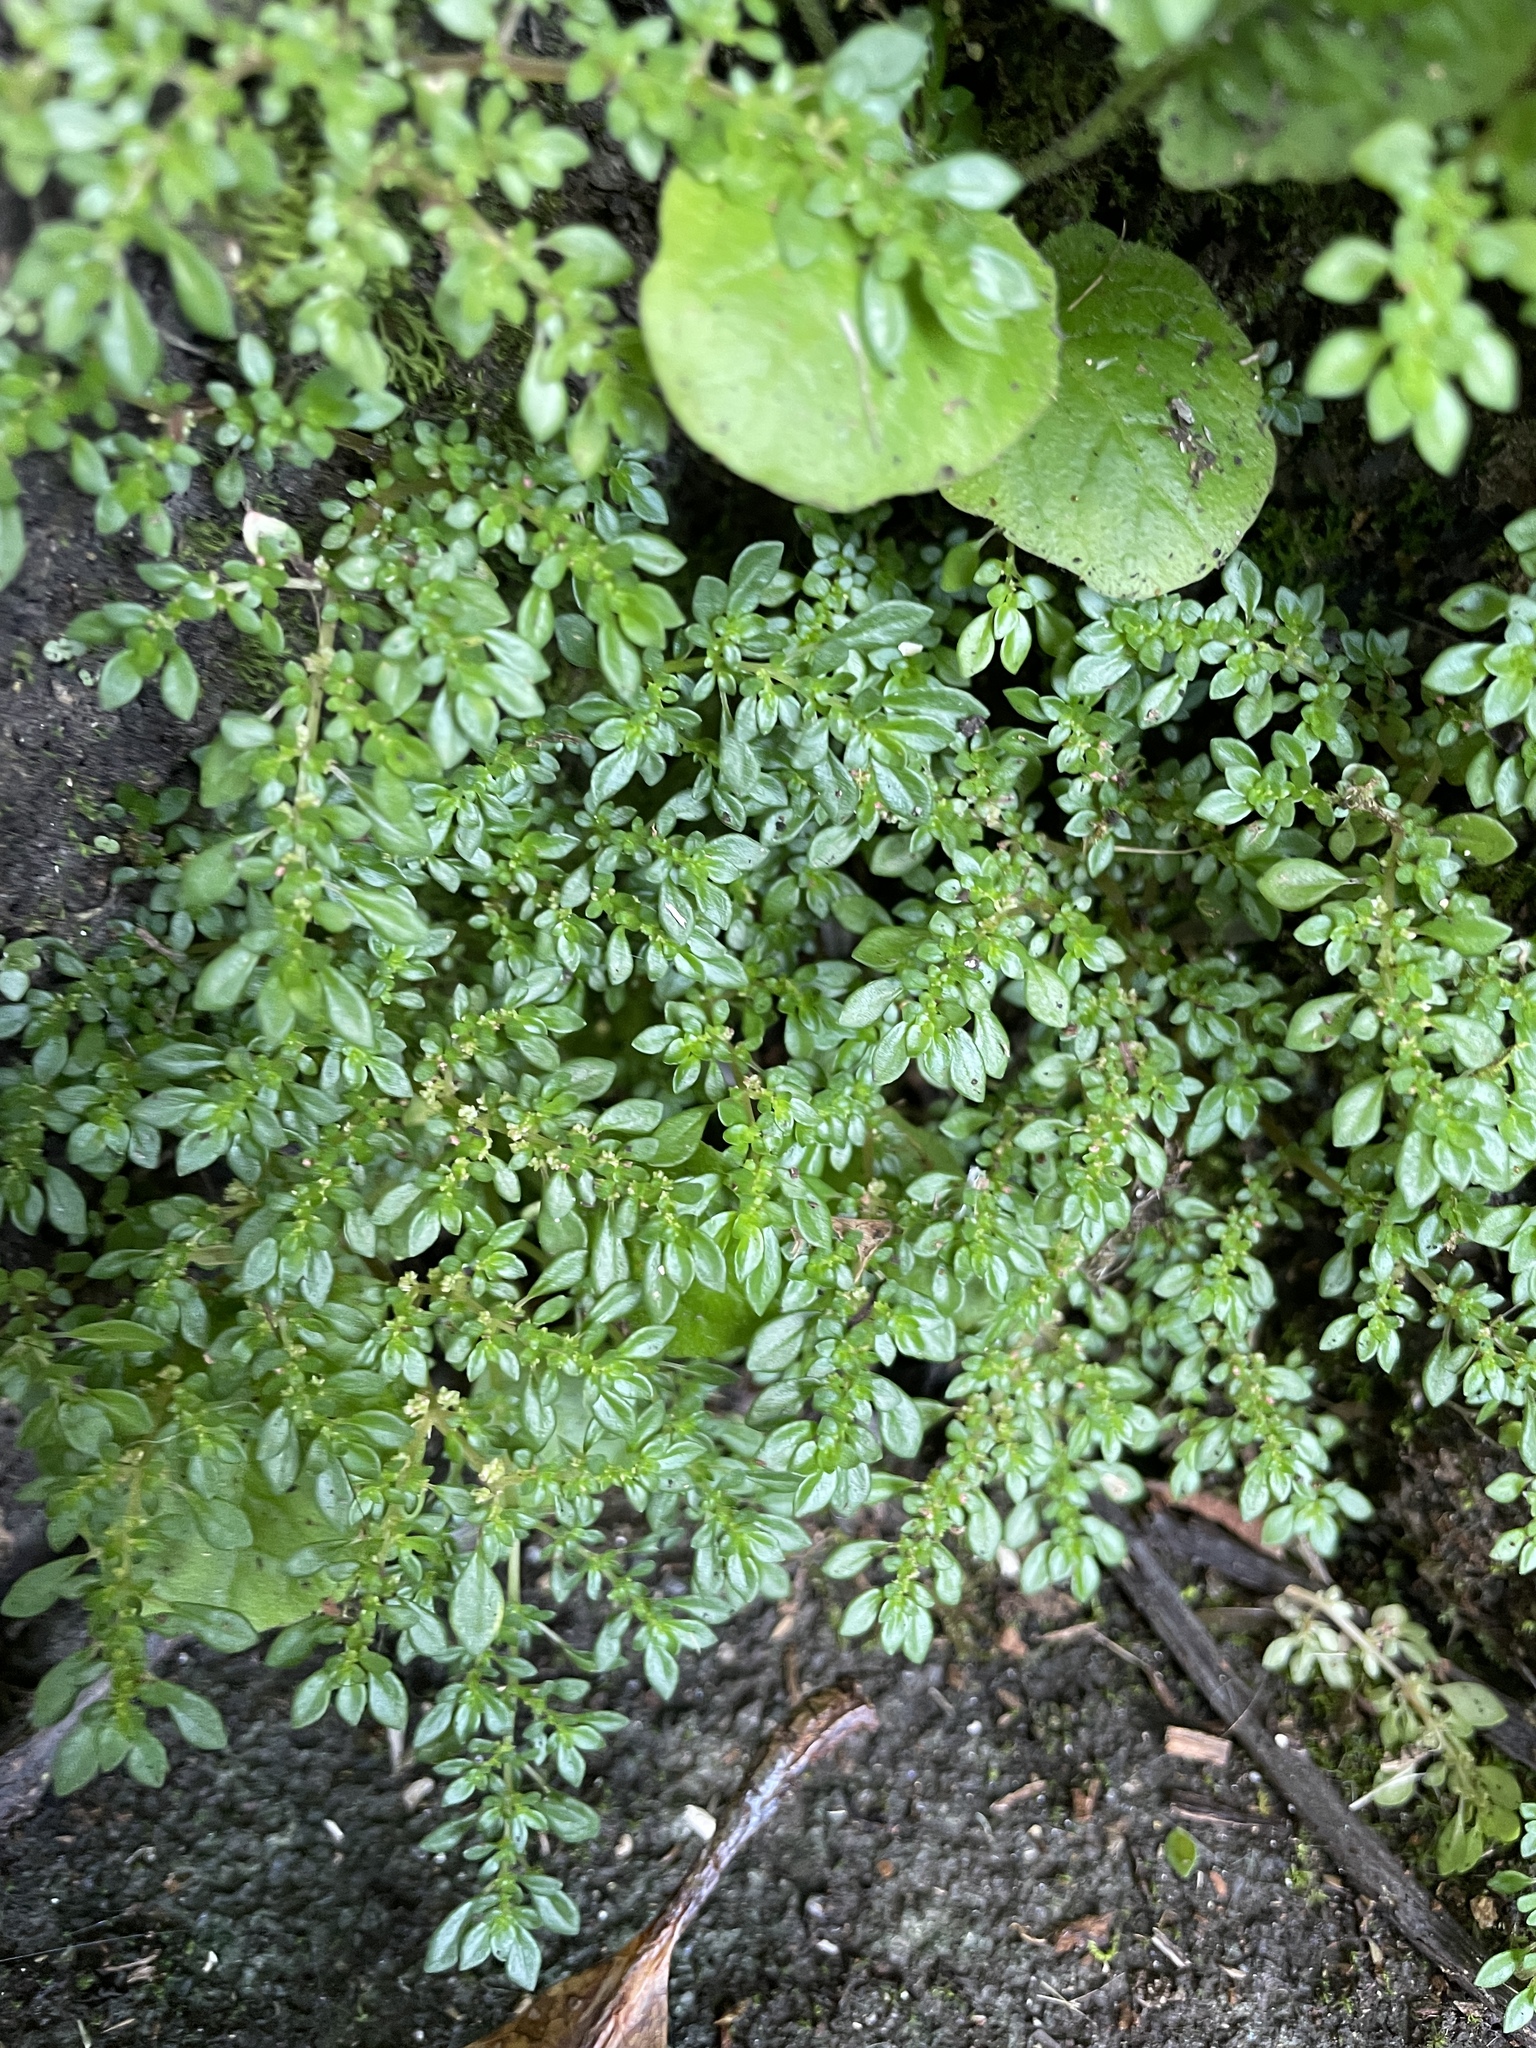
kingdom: Plantae
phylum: Tracheophyta
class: Magnoliopsida
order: Rosales
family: Urticaceae
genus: Pilea
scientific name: Pilea microphylla
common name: Artillery-plant
